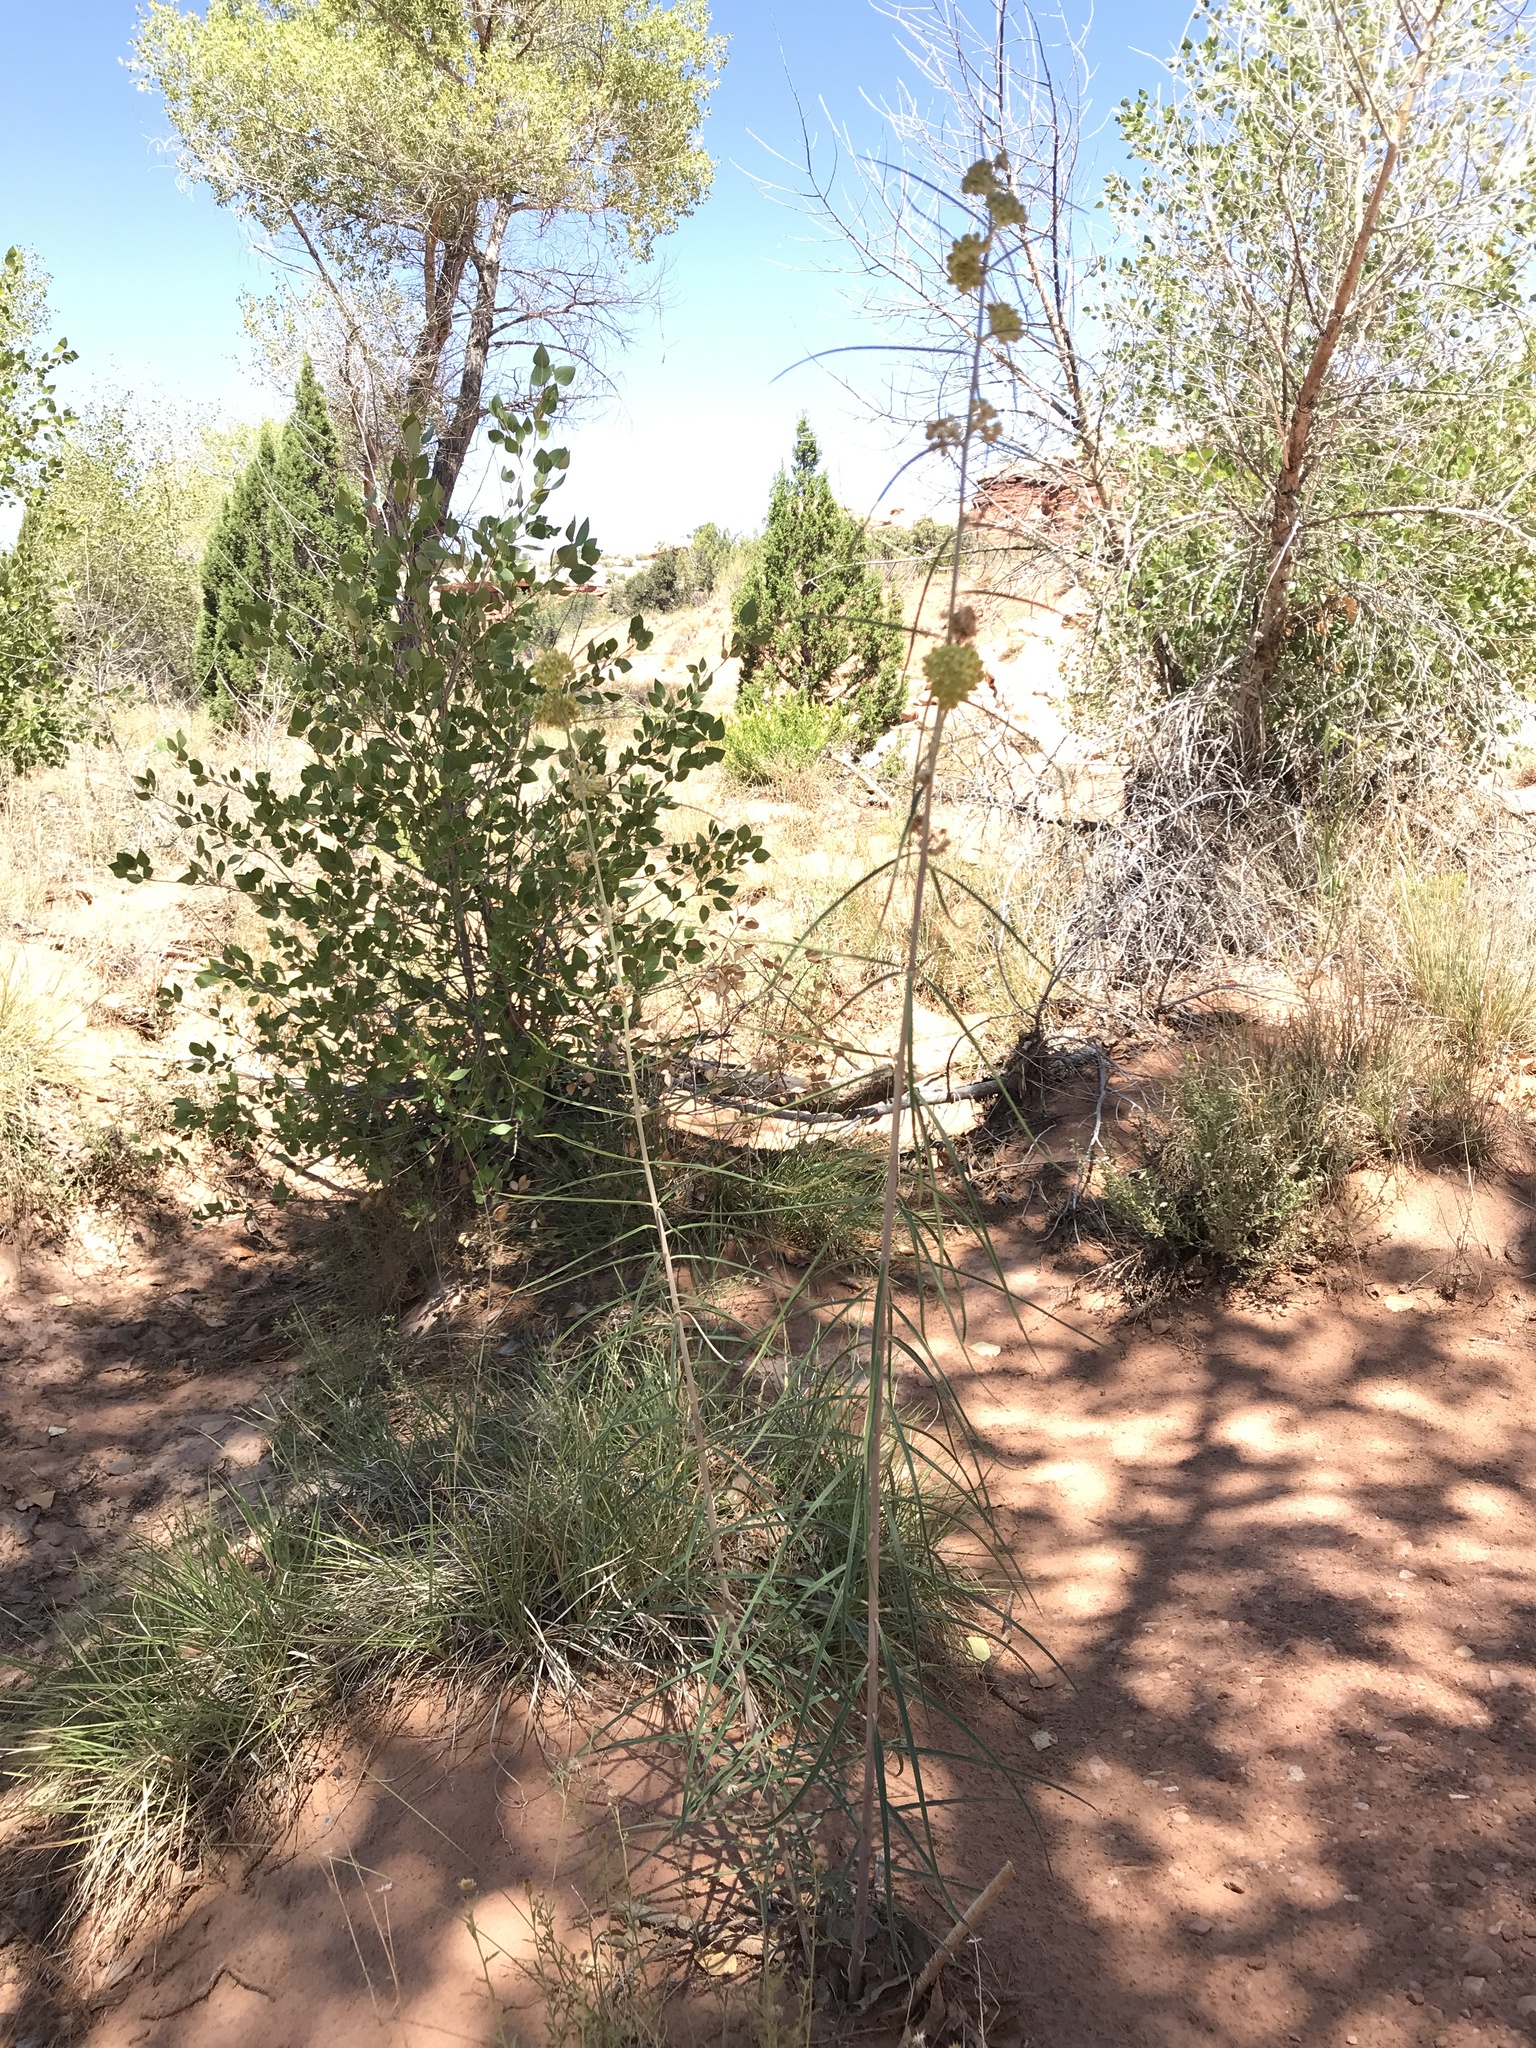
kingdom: Plantae
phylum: Tracheophyta
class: Magnoliopsida
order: Gentianales
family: Apocynaceae
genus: Asclepias
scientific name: Asclepias rusbyi
